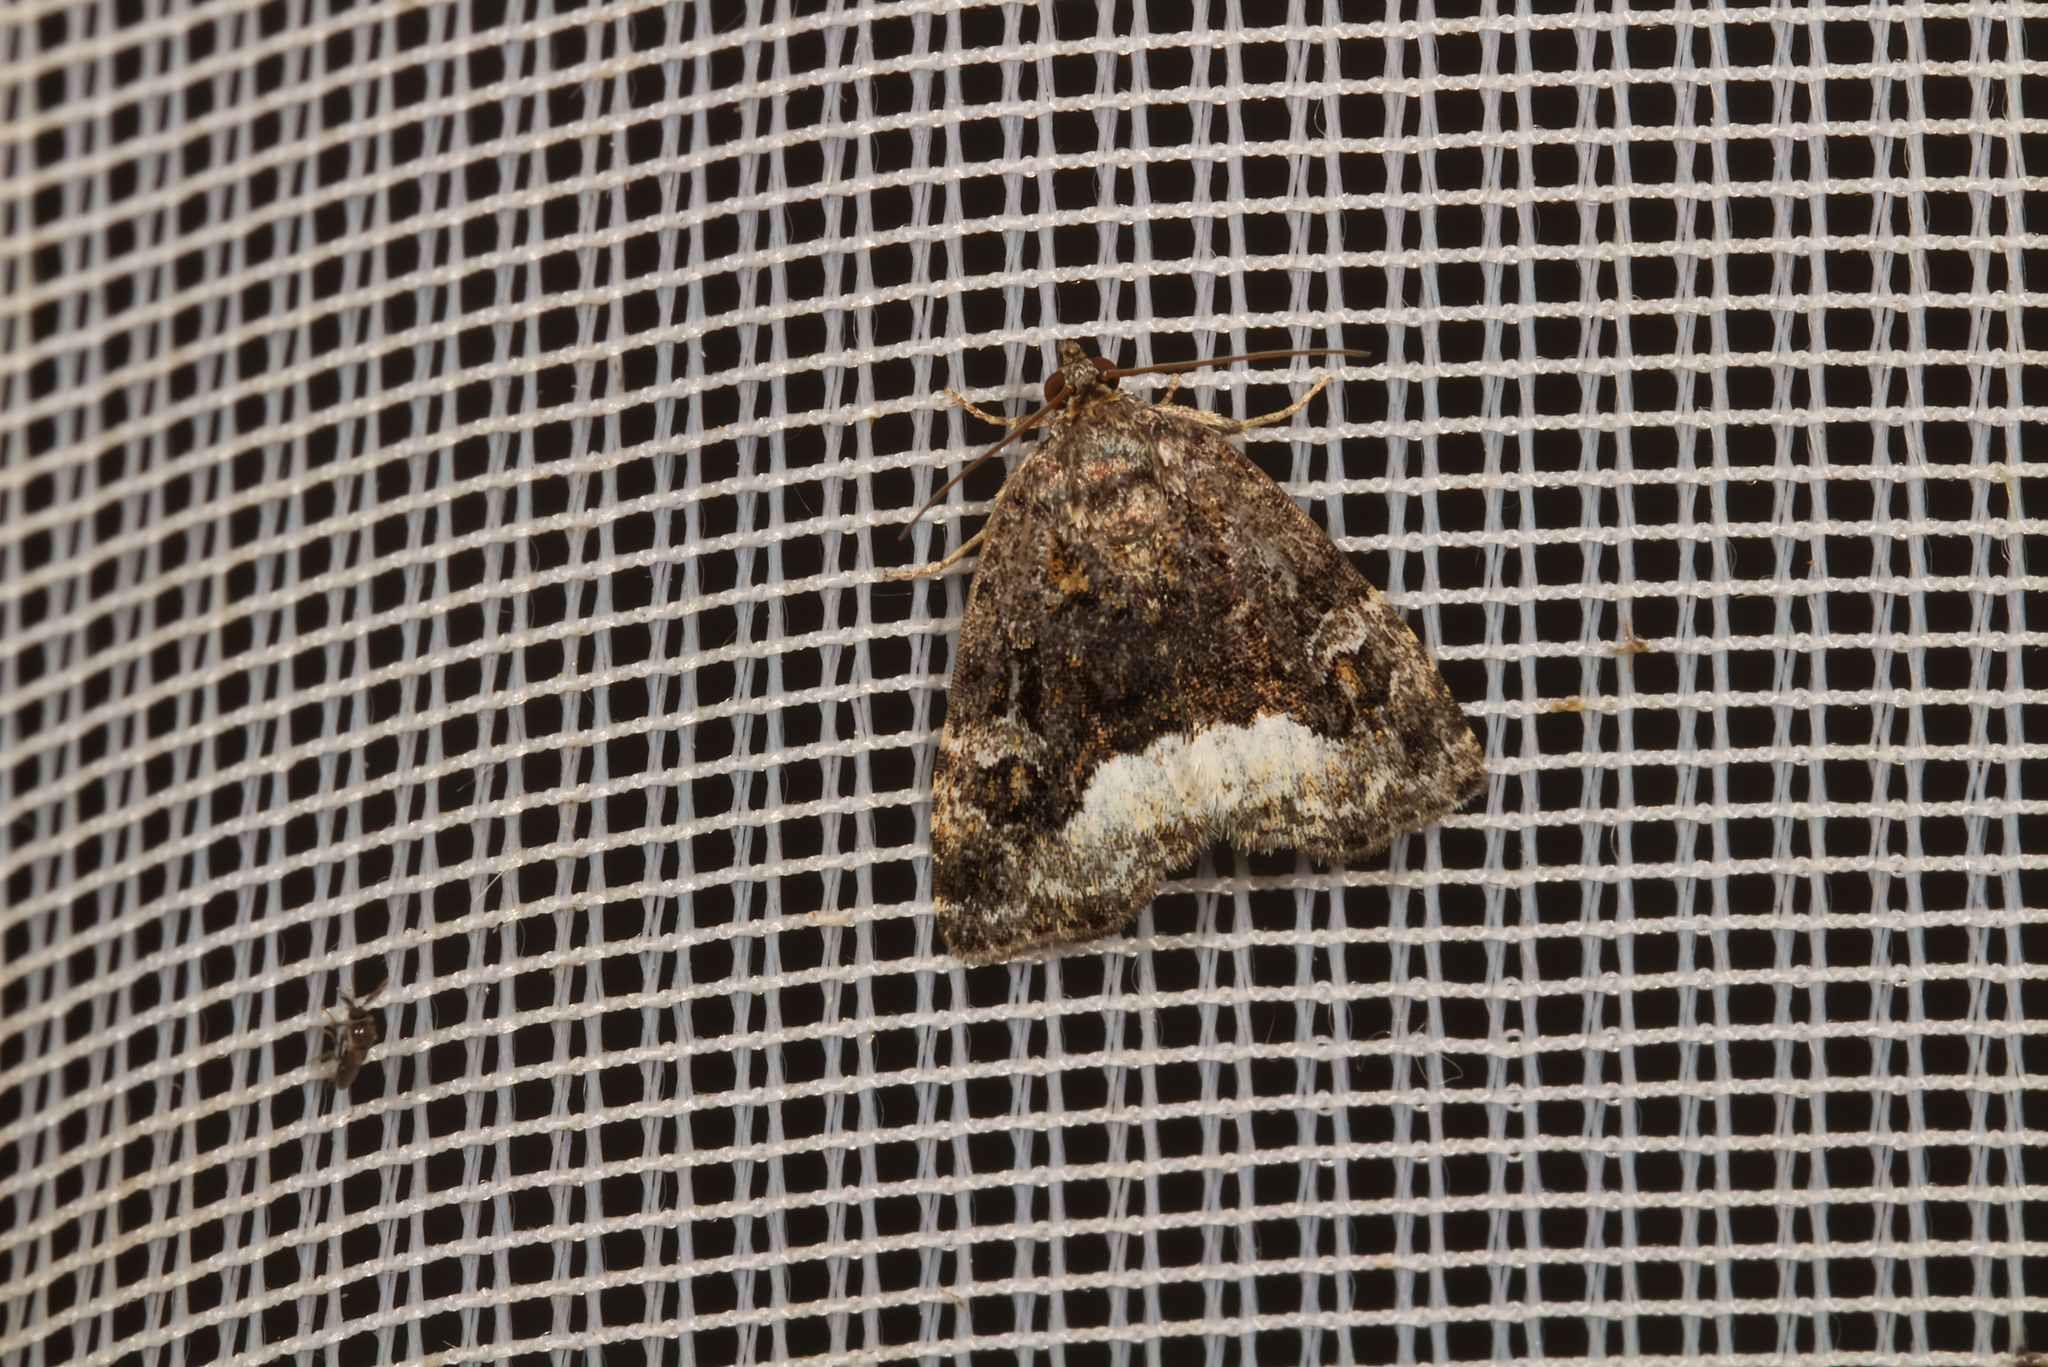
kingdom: Animalia
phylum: Arthropoda
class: Insecta
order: Lepidoptera
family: Noctuidae
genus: Deltote
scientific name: Deltote pygarga
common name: Marbled white spot
